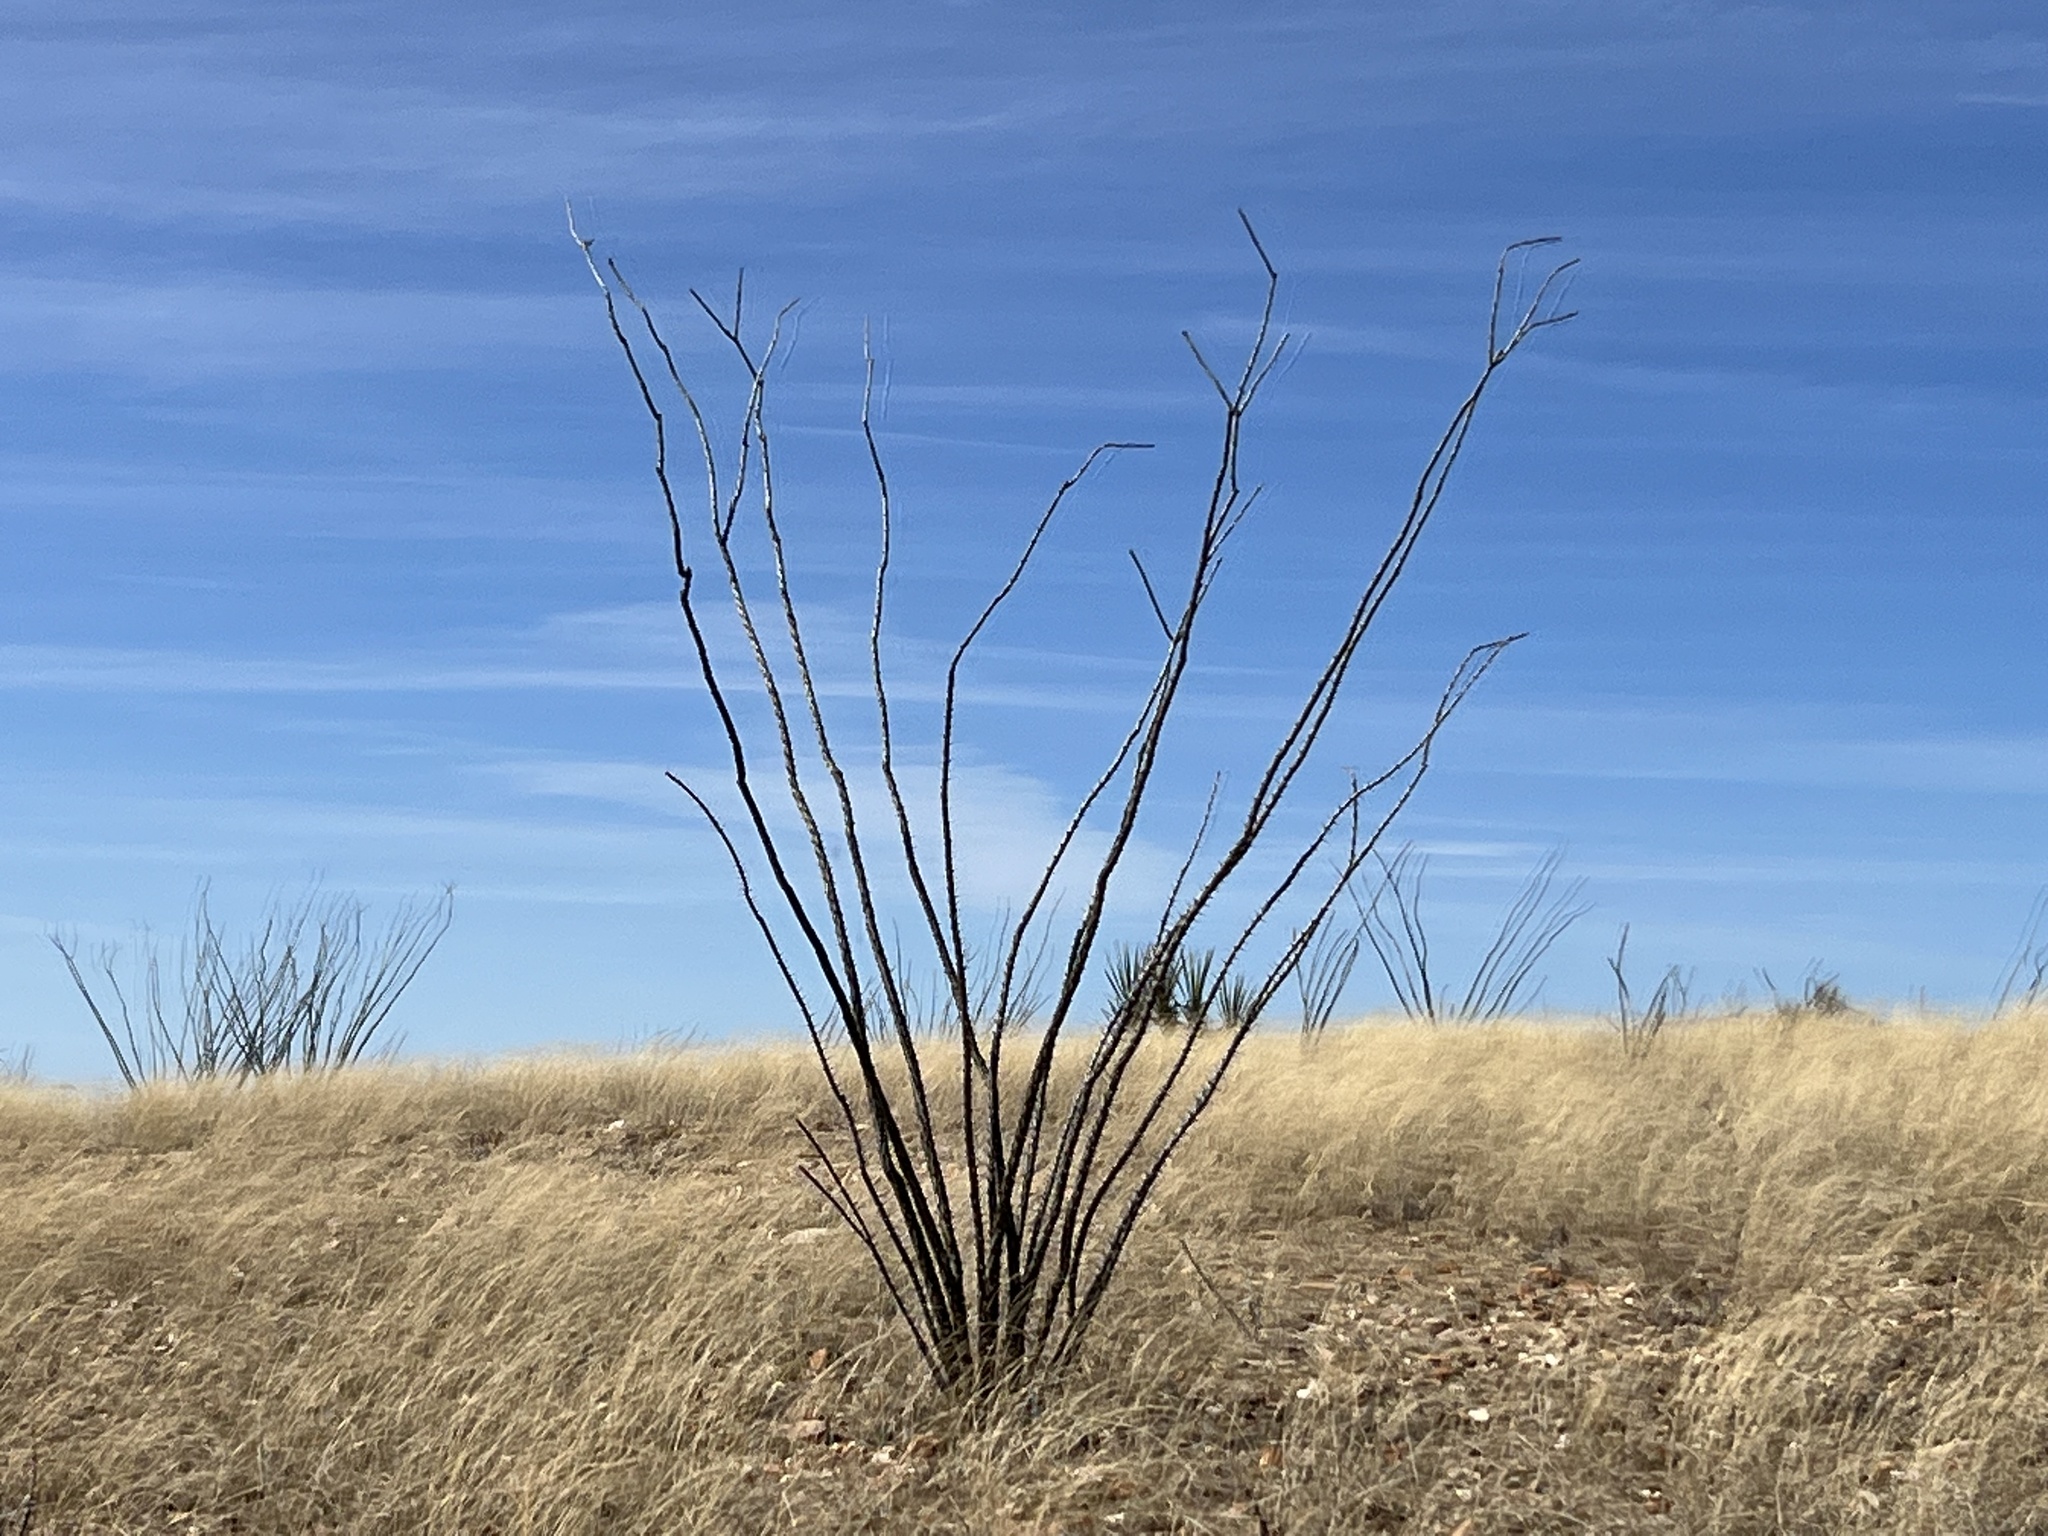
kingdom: Plantae
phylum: Tracheophyta
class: Magnoliopsida
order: Ericales
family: Fouquieriaceae
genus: Fouquieria
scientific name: Fouquieria splendens
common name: Vine-cactus
